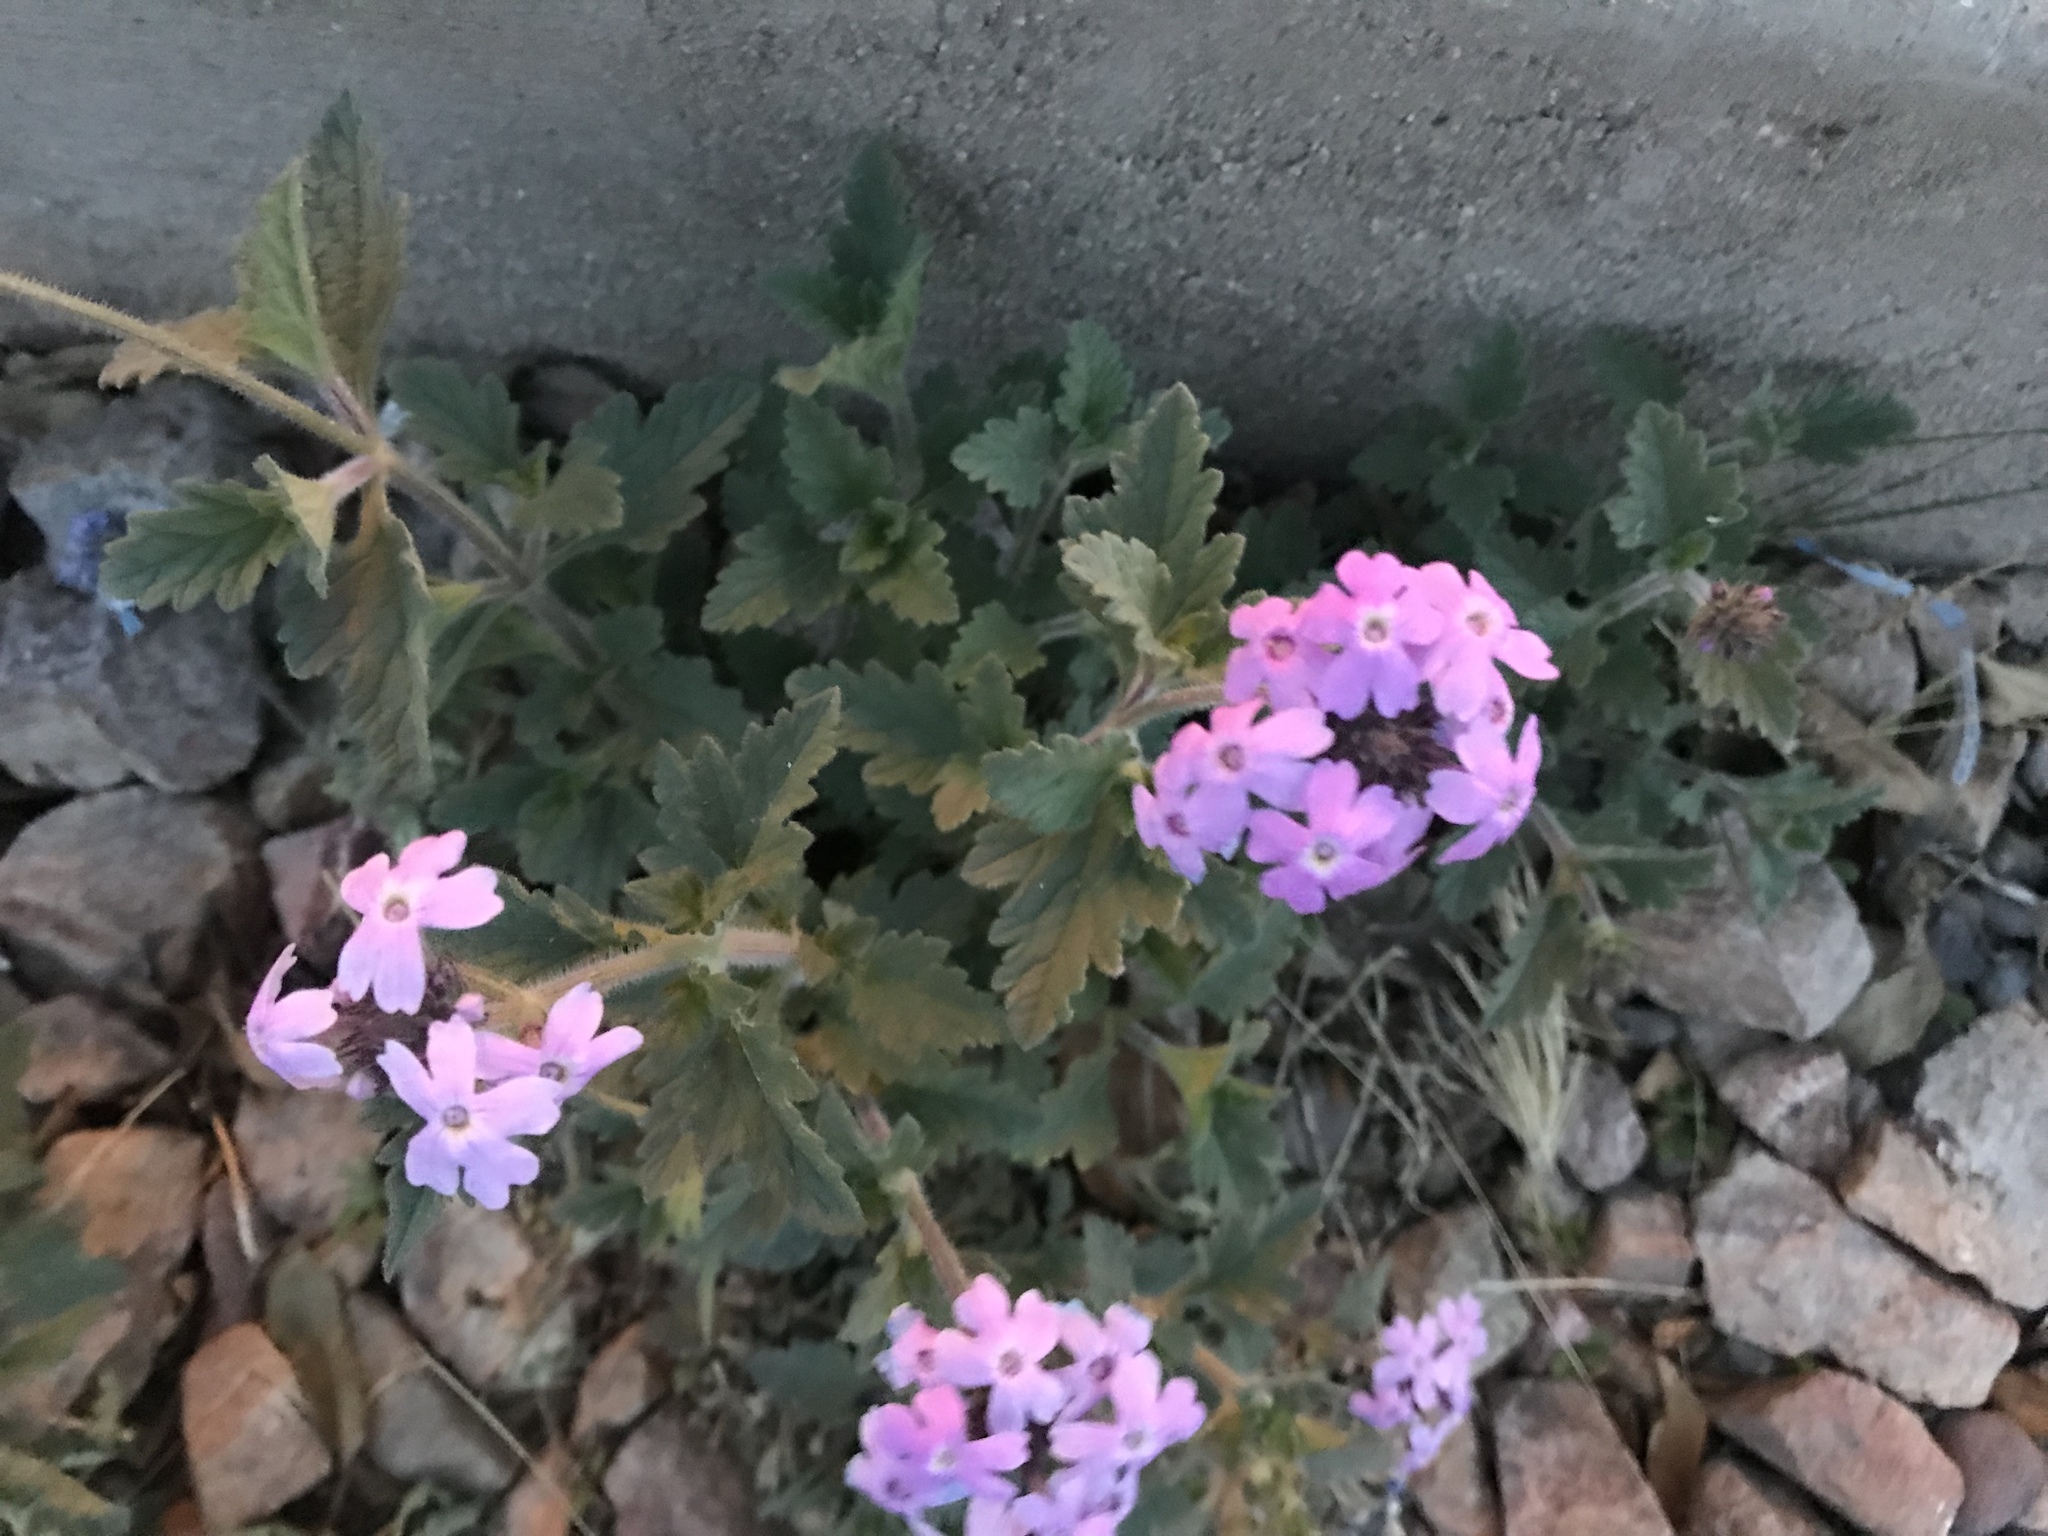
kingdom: Plantae
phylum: Tracheophyta
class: Magnoliopsida
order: Lamiales
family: Verbenaceae
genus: Verbena
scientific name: Verbena gooddingii
